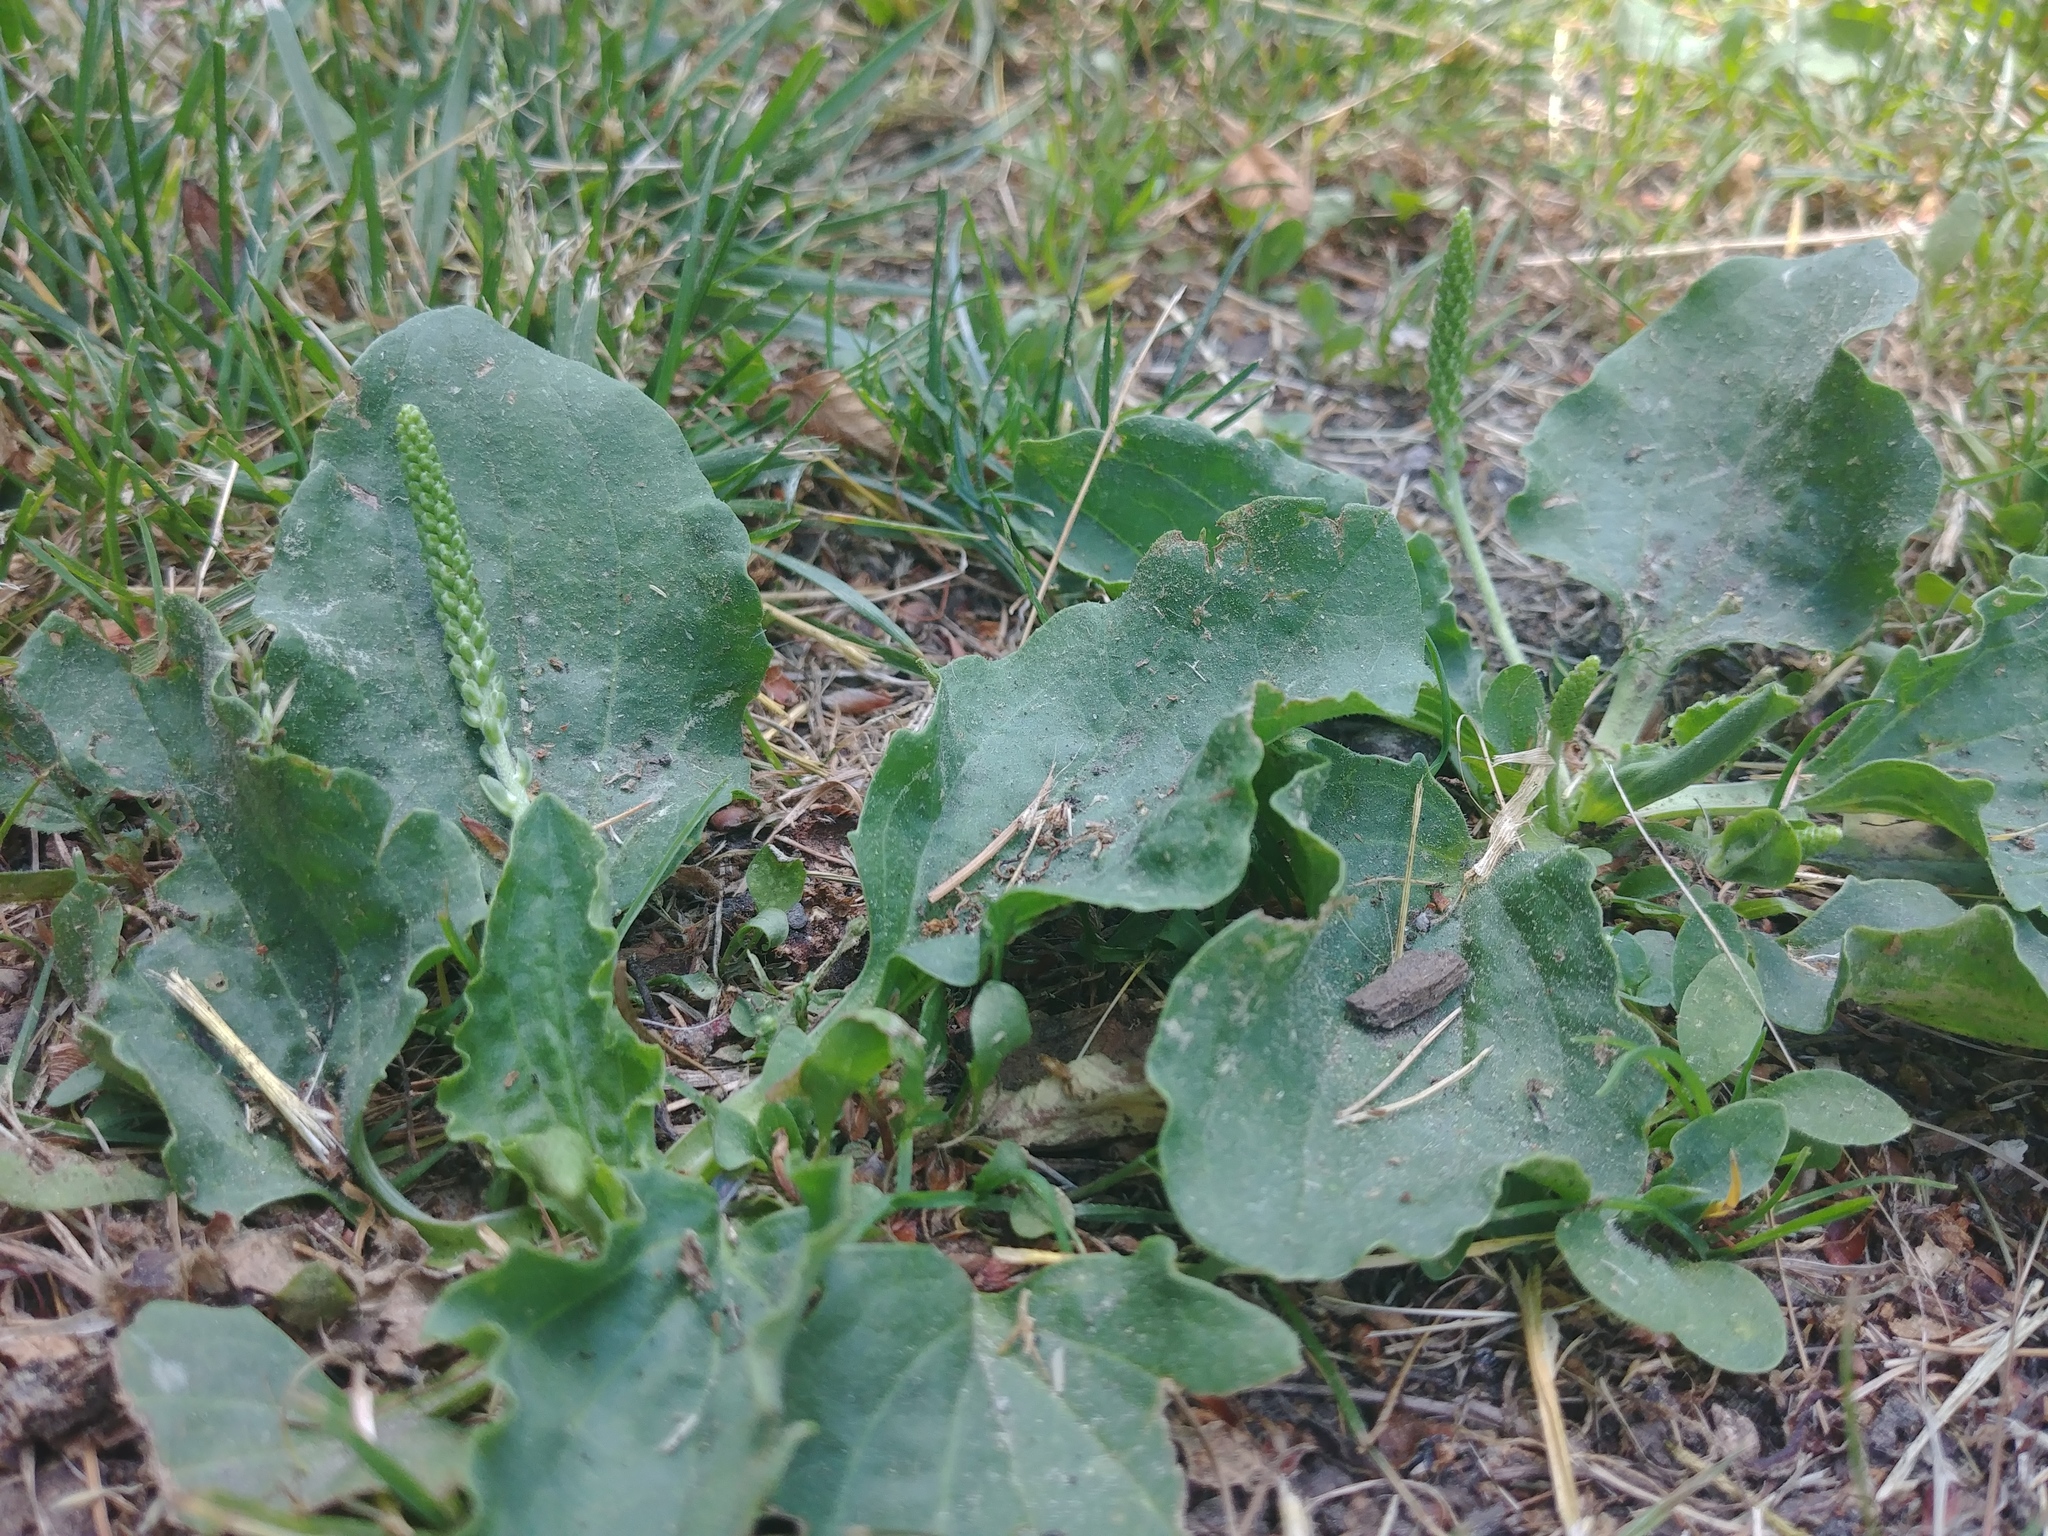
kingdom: Plantae
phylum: Tracheophyta
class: Magnoliopsida
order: Lamiales
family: Plantaginaceae
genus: Plantago
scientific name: Plantago major
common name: Common plantain
